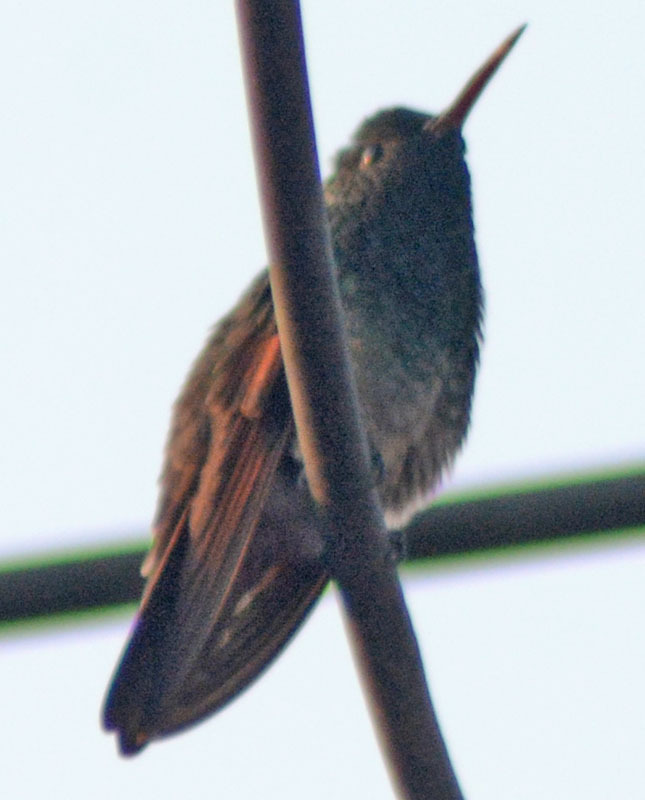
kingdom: Animalia
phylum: Chordata
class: Aves
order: Apodiformes
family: Trochilidae
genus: Saucerottia
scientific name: Saucerottia beryllina
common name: Berylline hummingbird
